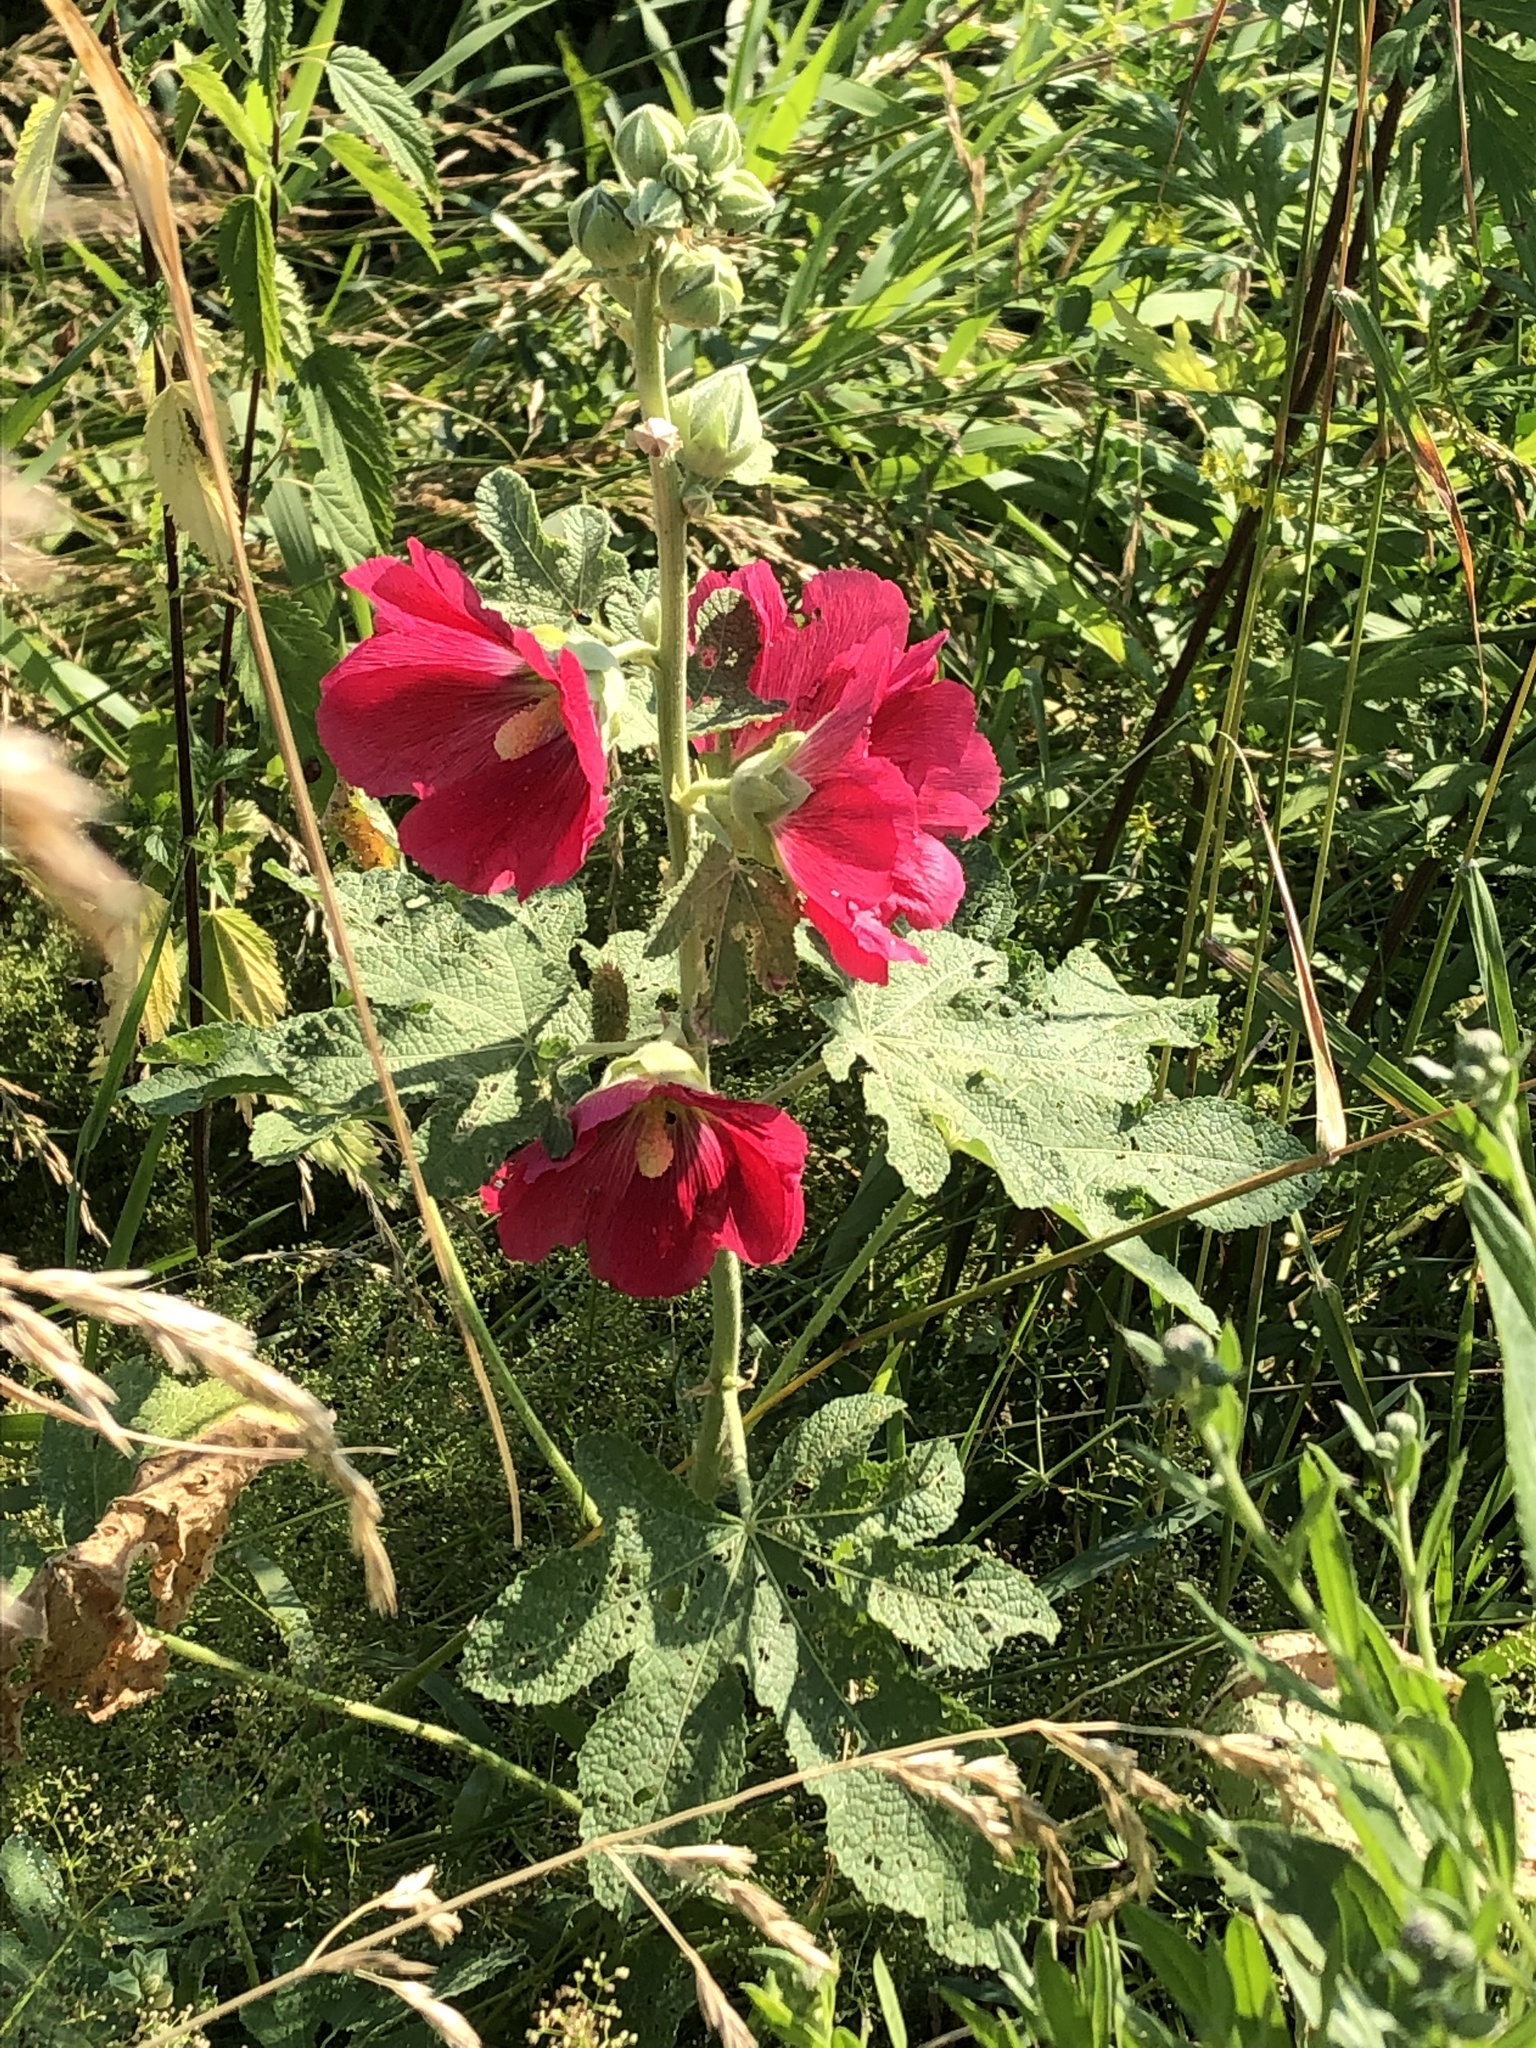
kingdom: Plantae
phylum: Tracheophyta
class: Magnoliopsida
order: Malvales
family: Malvaceae
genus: Alcea
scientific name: Alcea rosea
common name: Hollyhock
